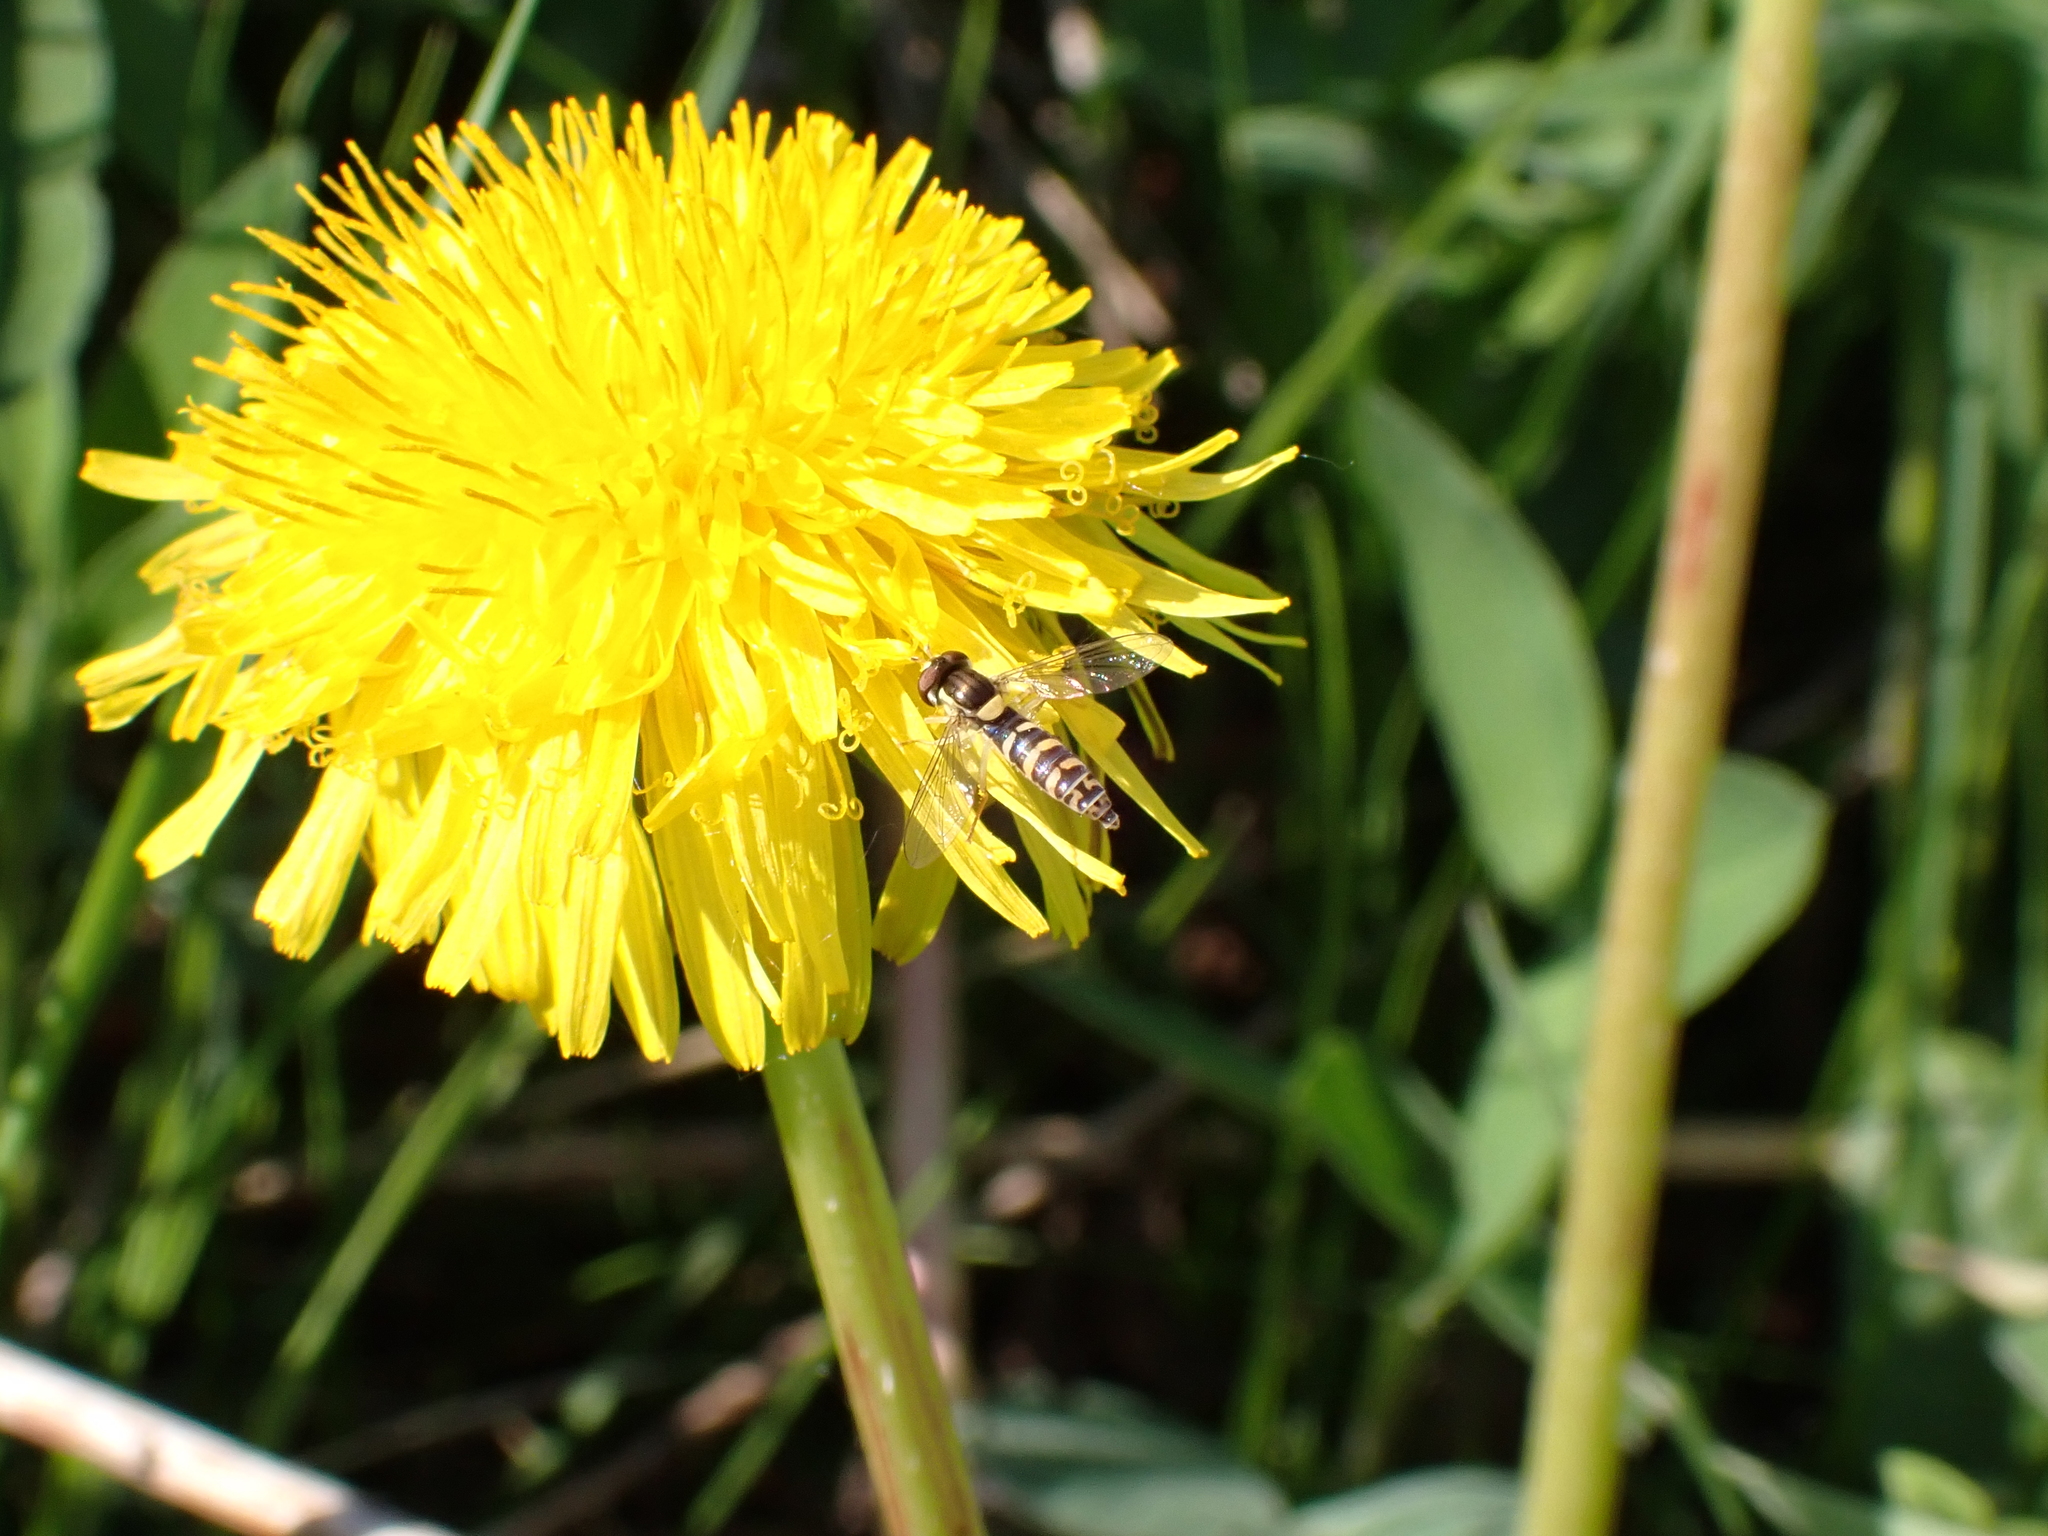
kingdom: Animalia
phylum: Arthropoda
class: Insecta
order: Diptera
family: Syrphidae
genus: Sphaerophoria
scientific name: Sphaerophoria
